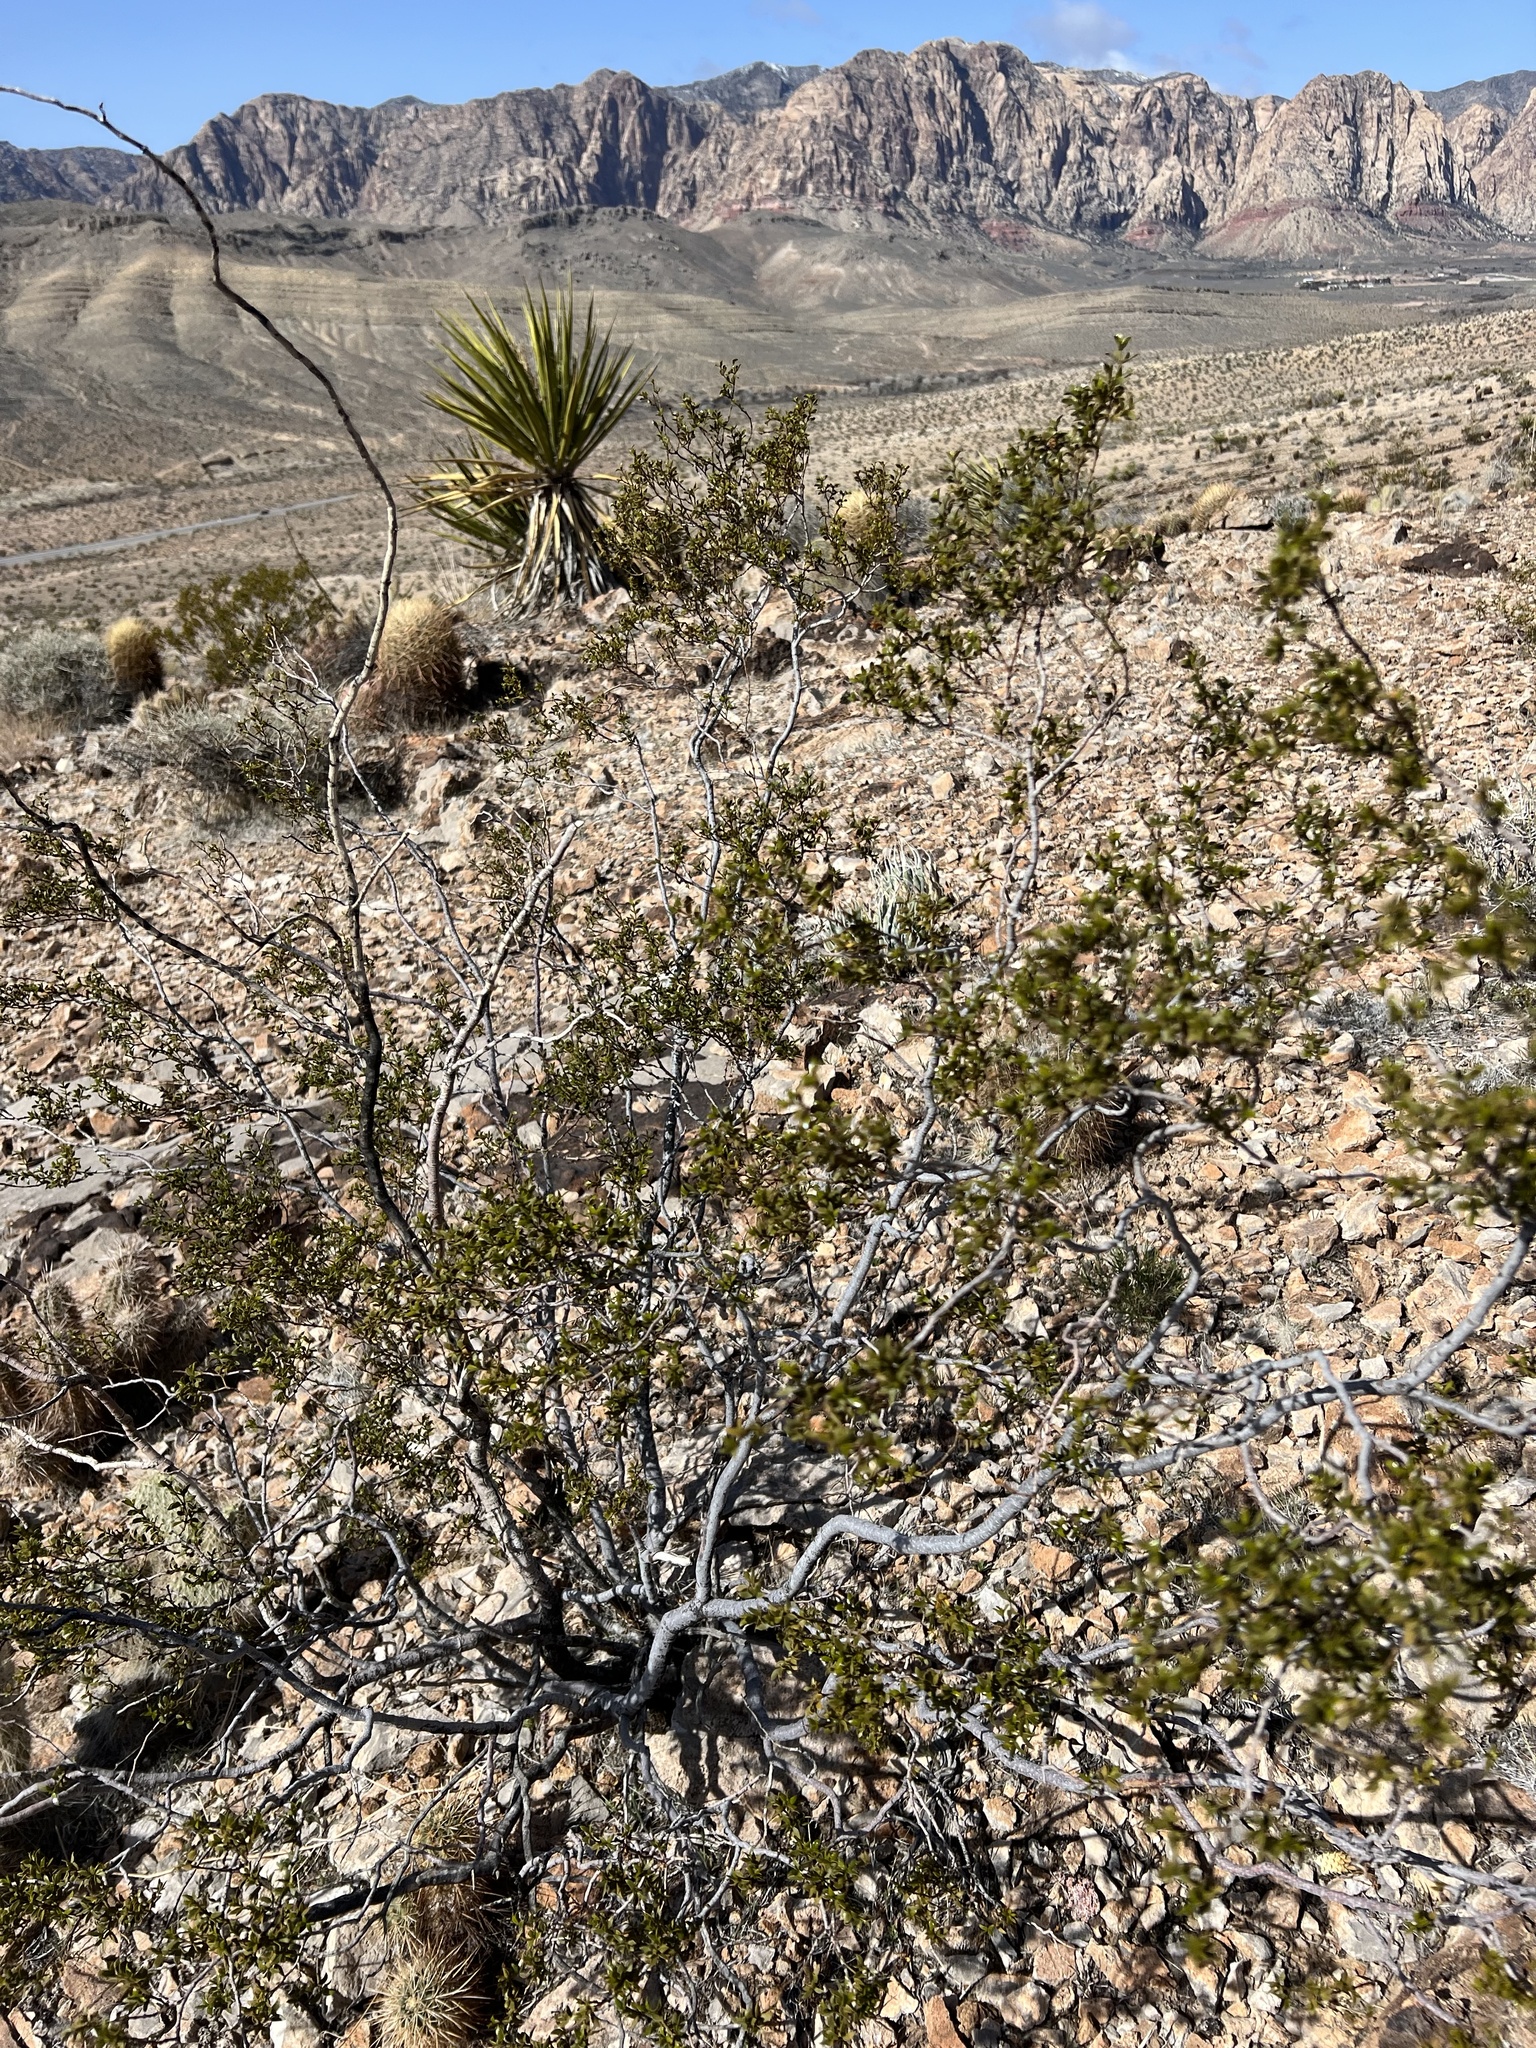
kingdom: Plantae
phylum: Tracheophyta
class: Magnoliopsida
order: Zygophyllales
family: Zygophyllaceae
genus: Larrea
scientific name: Larrea tridentata
